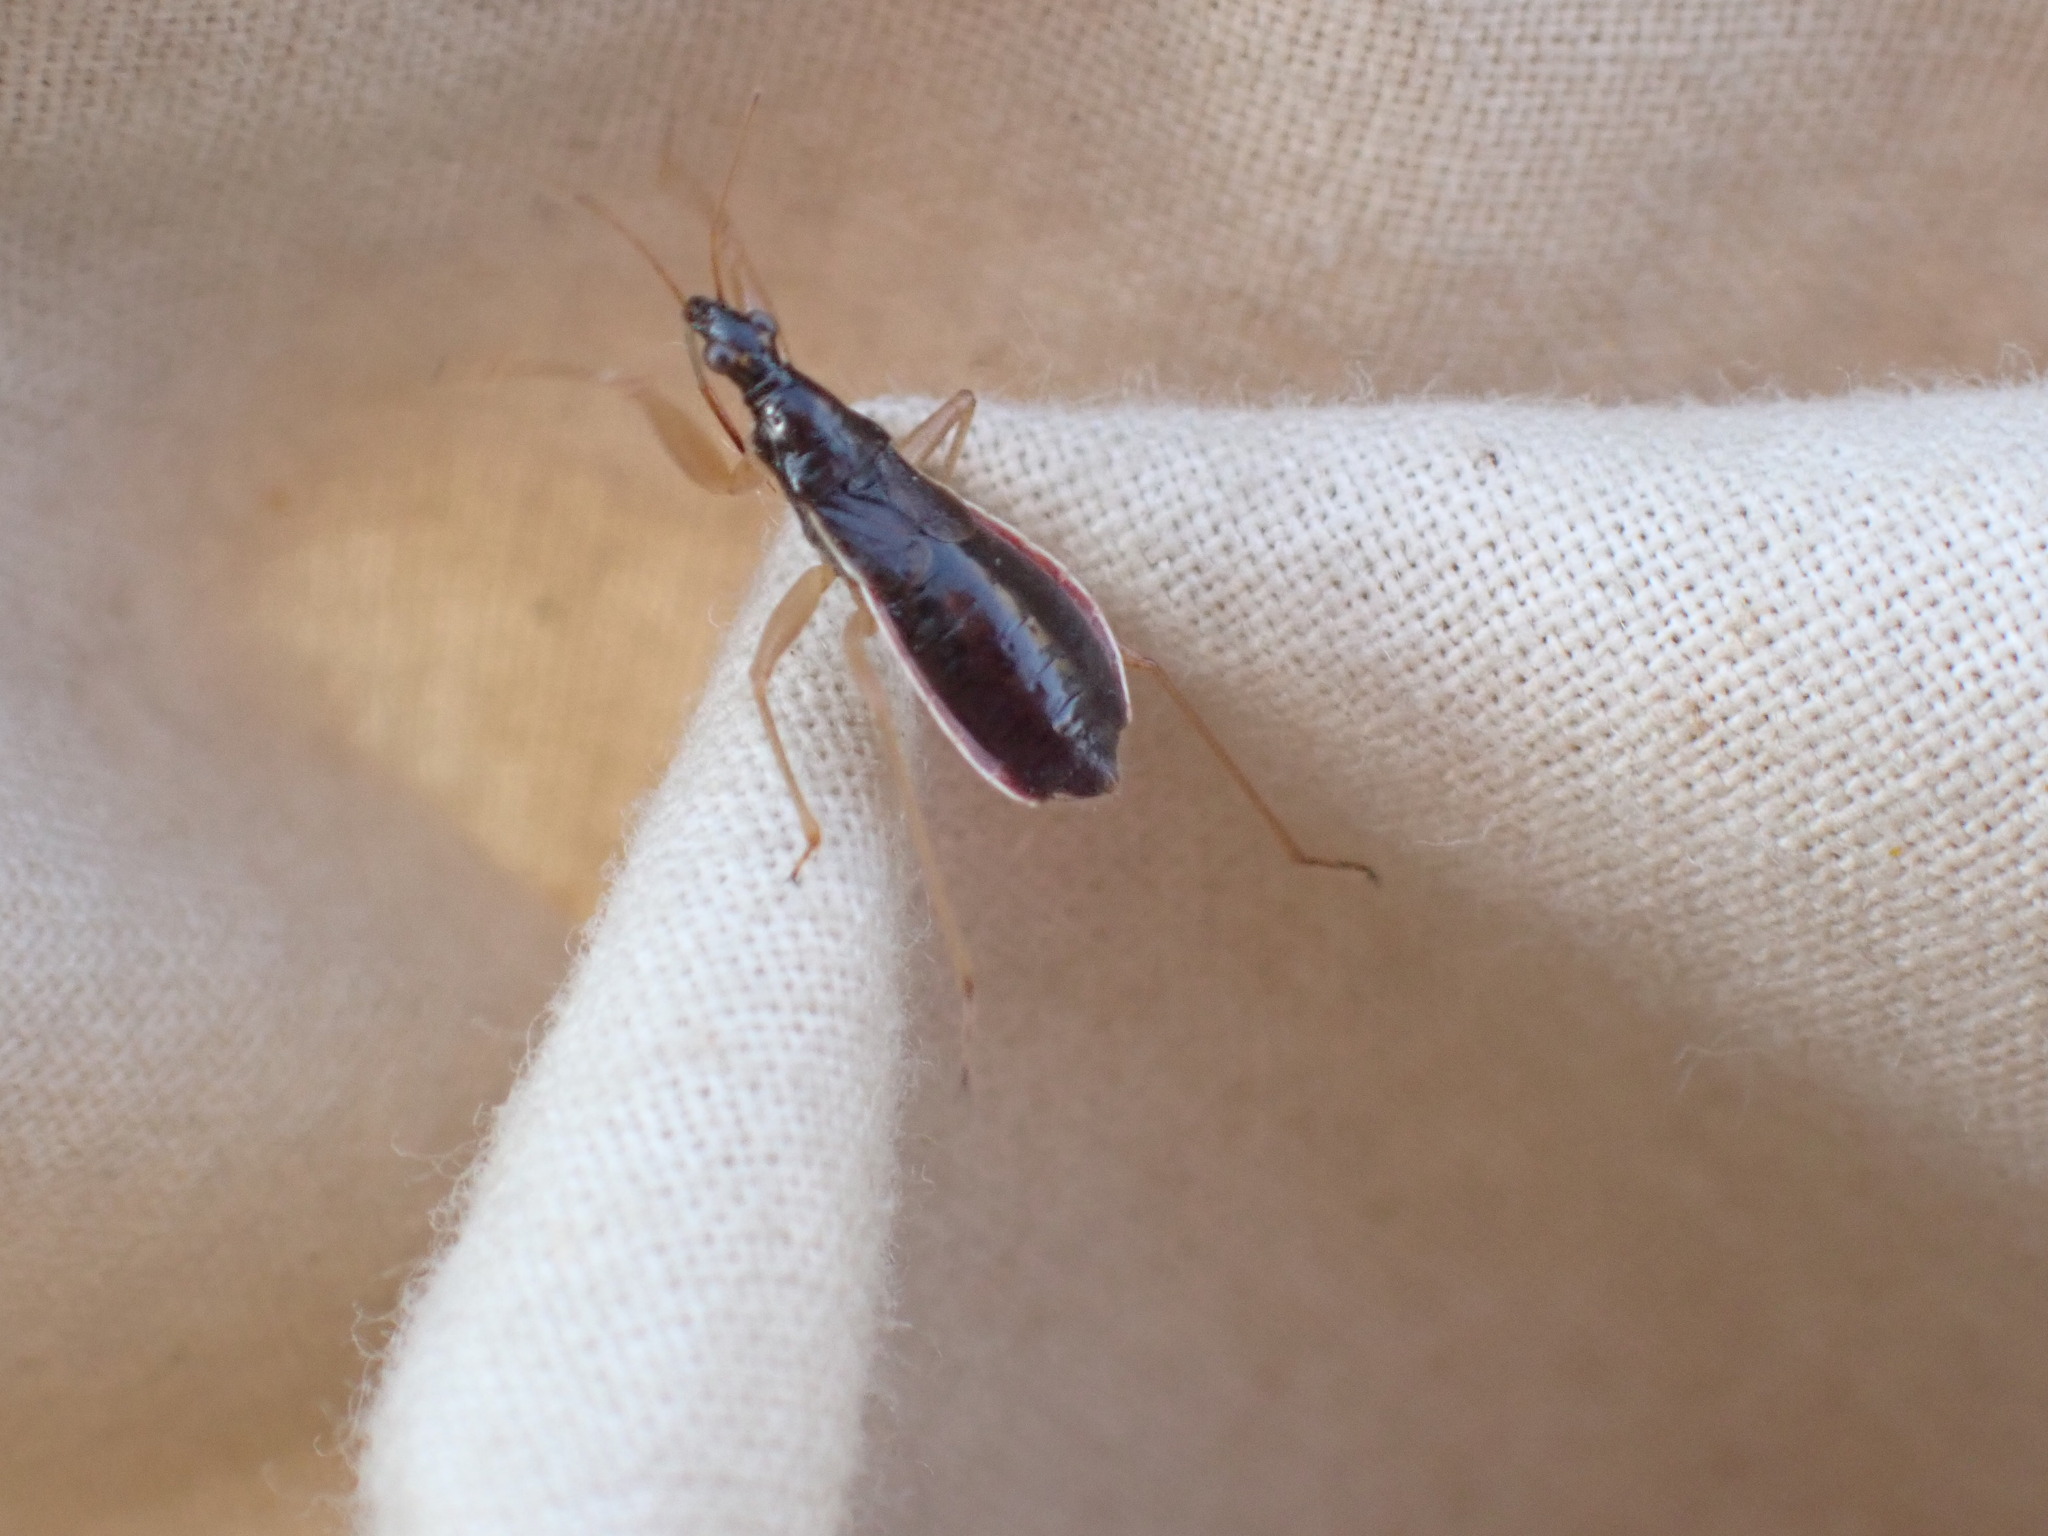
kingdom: Animalia
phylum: Arthropoda
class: Insecta
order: Hemiptera
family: Nabidae
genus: Nabis
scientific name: Nabis
